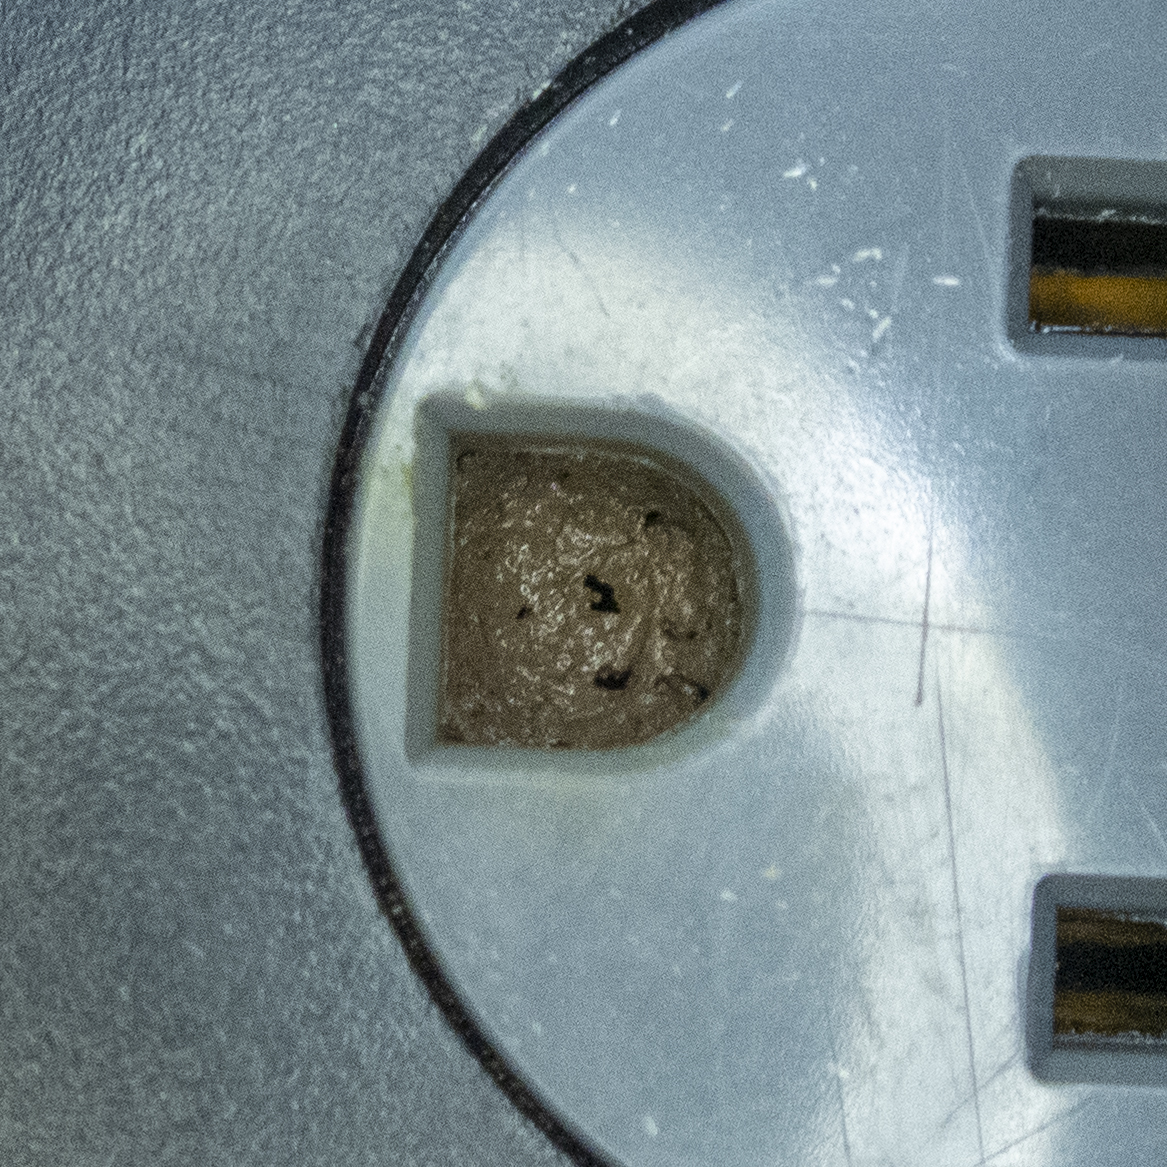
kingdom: Animalia
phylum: Arthropoda
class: Insecta
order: Hymenoptera
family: Megachilidae
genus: Osmia
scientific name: Osmia cornifrons
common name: Horn-faced bee
